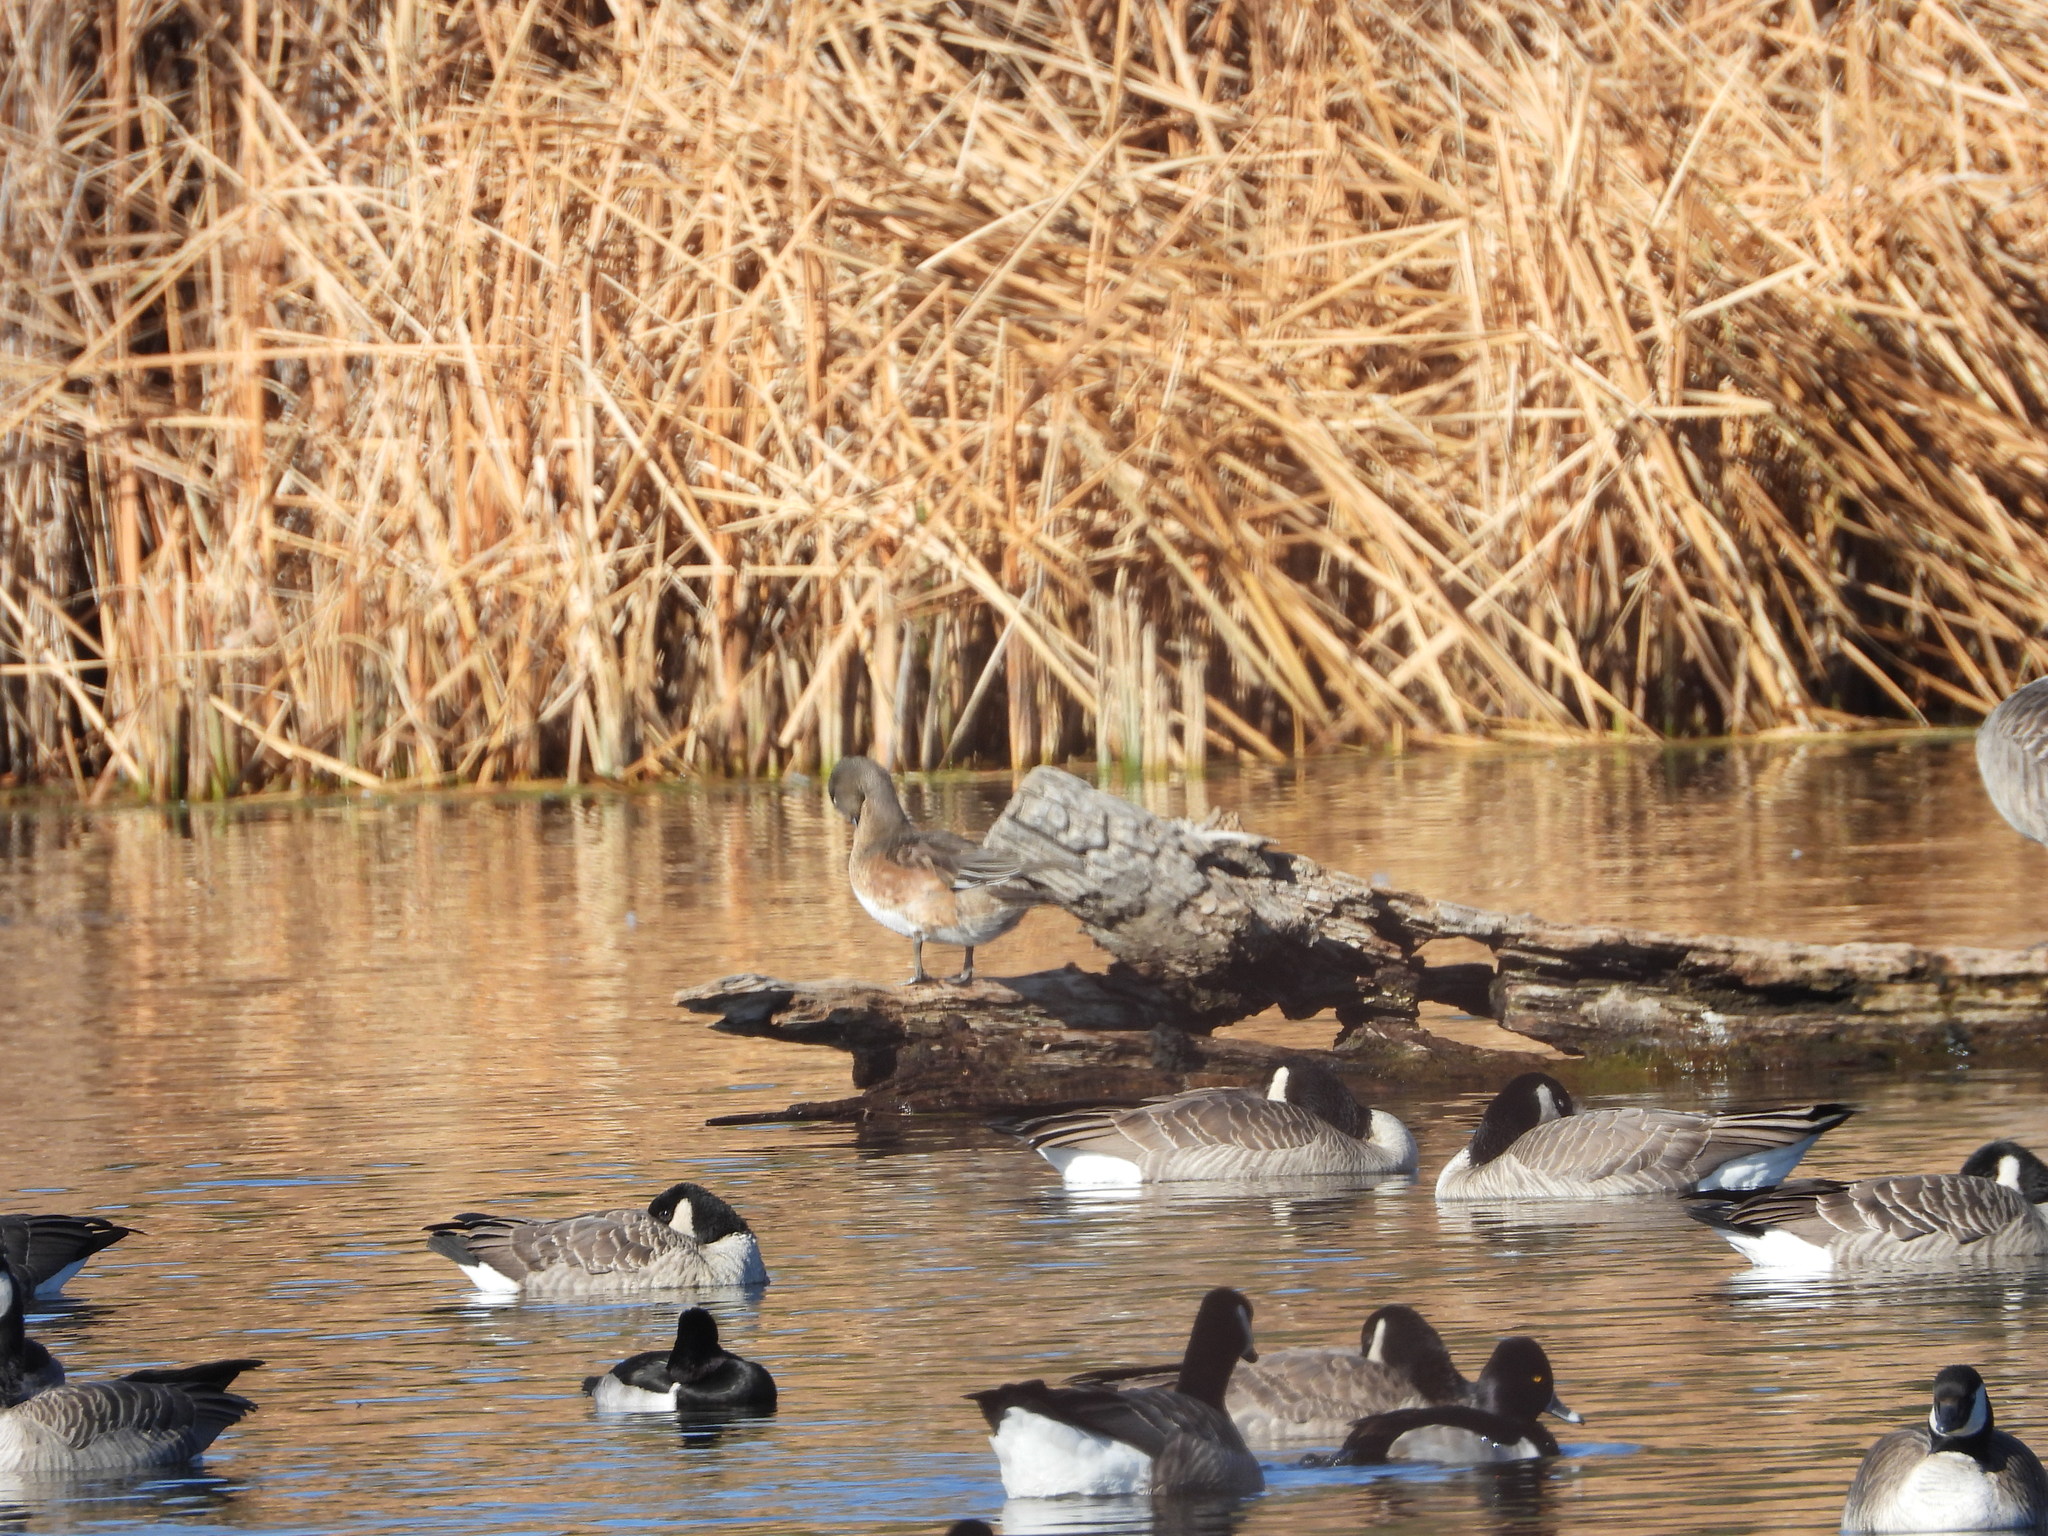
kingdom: Animalia
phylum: Chordata
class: Aves
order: Anseriformes
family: Anatidae
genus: Mareca
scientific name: Mareca americana
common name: American wigeon
